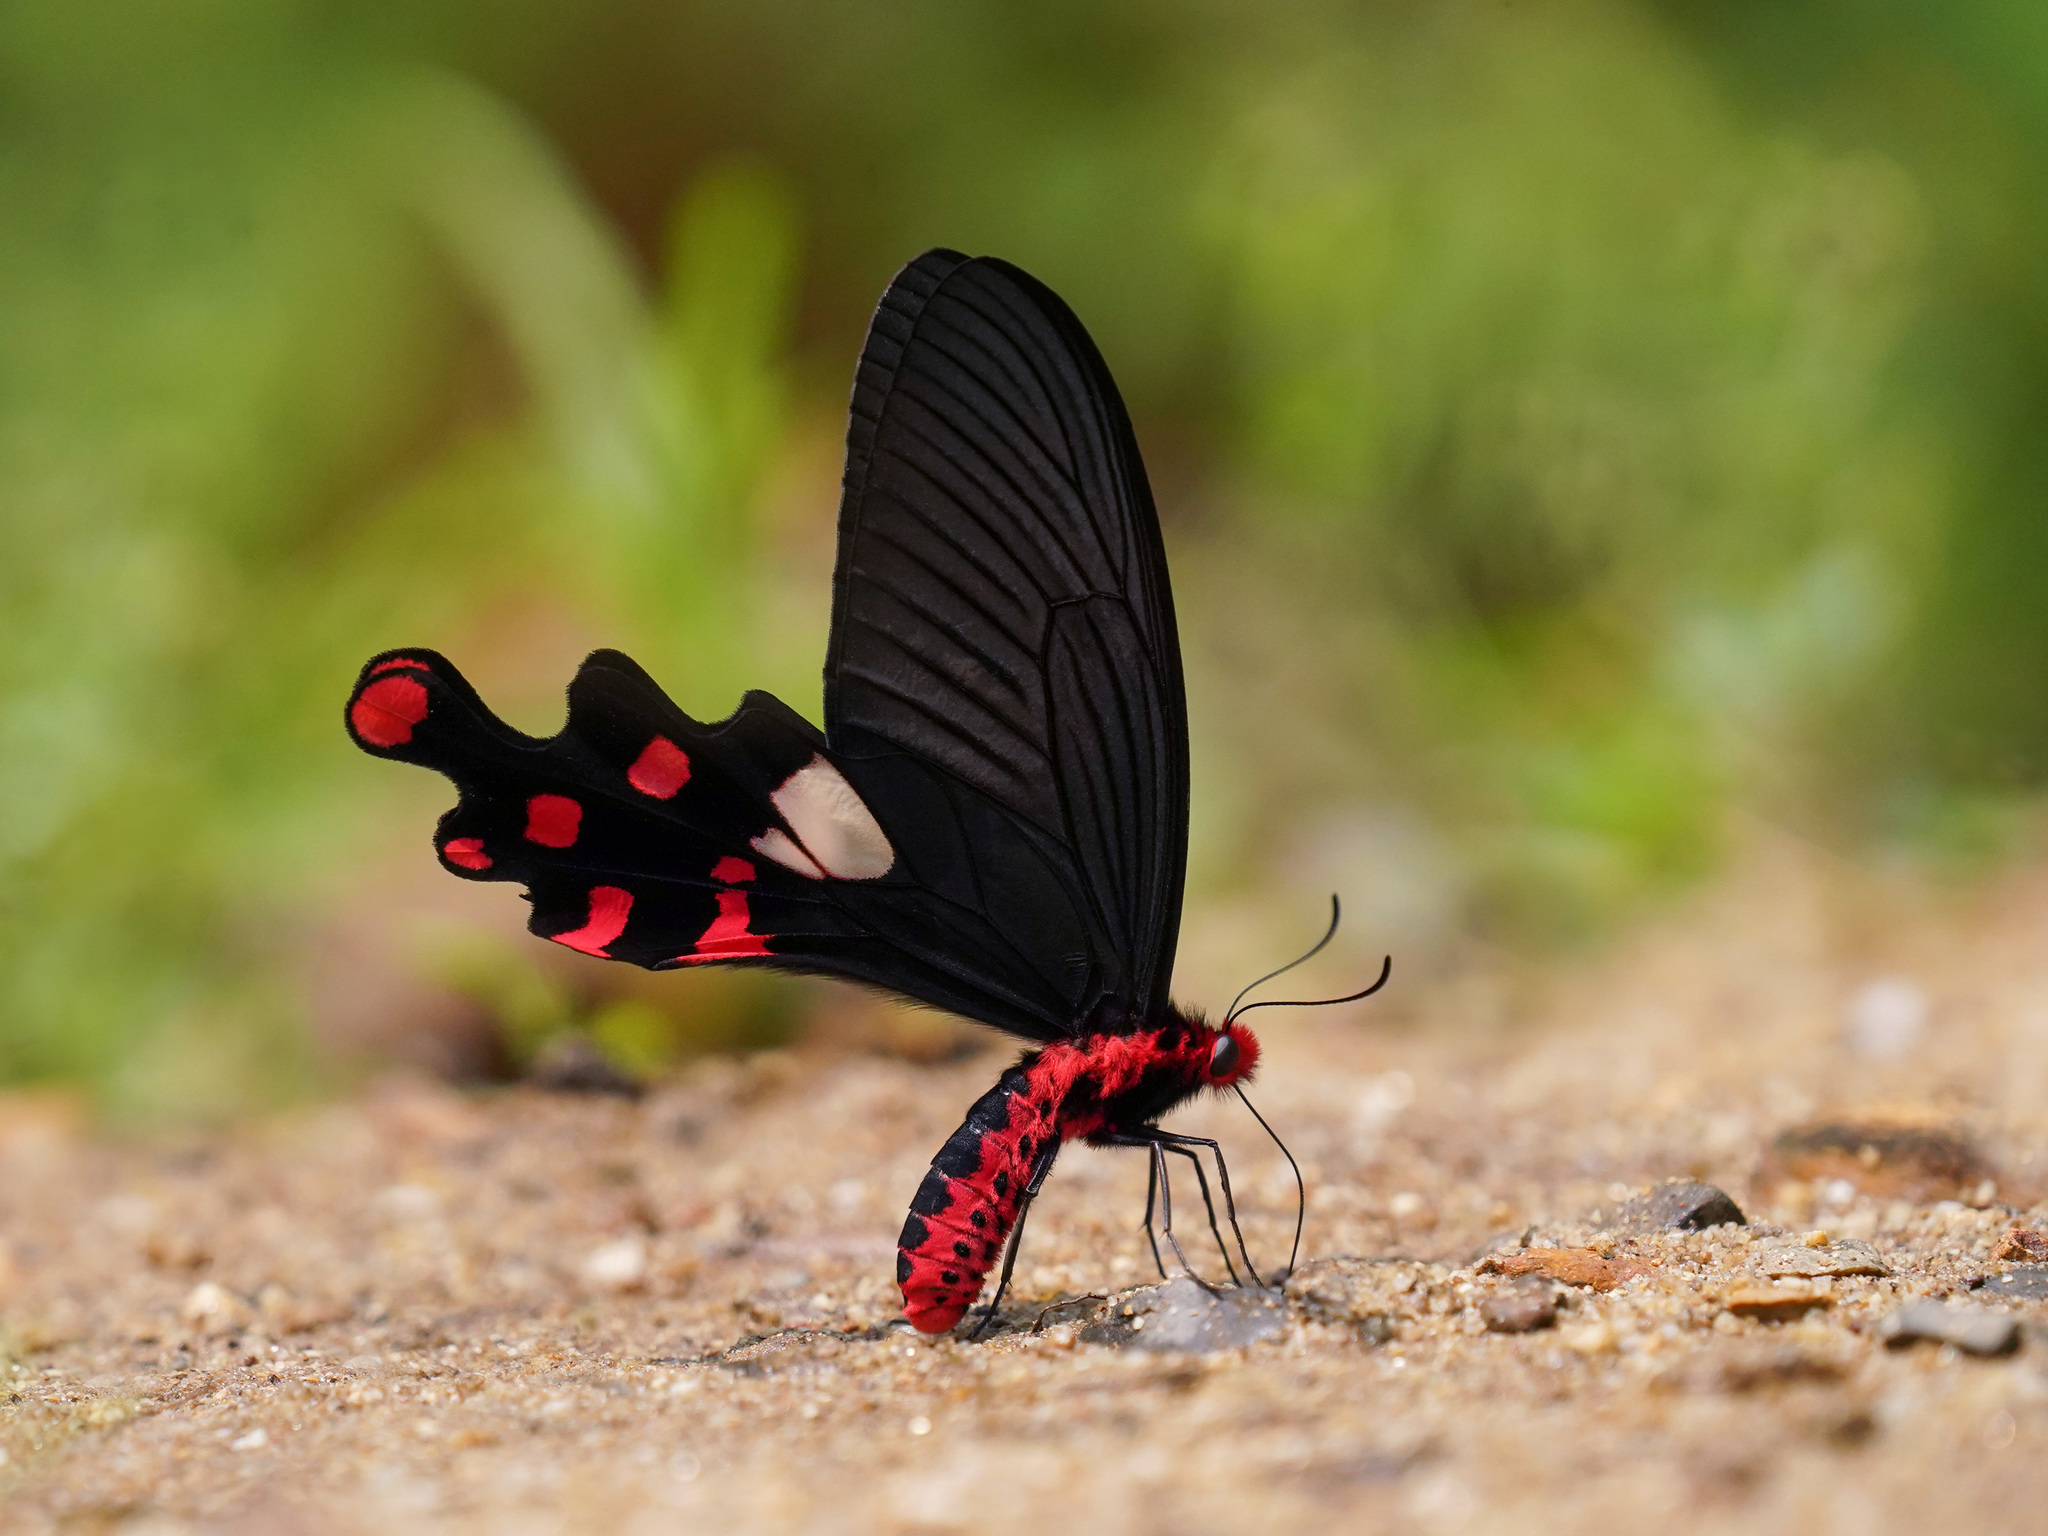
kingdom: Animalia
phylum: Arthropoda
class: Insecta
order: Lepidoptera
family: Papilionidae
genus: Byasa
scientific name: Byasa polyeuctes
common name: Common windmill
